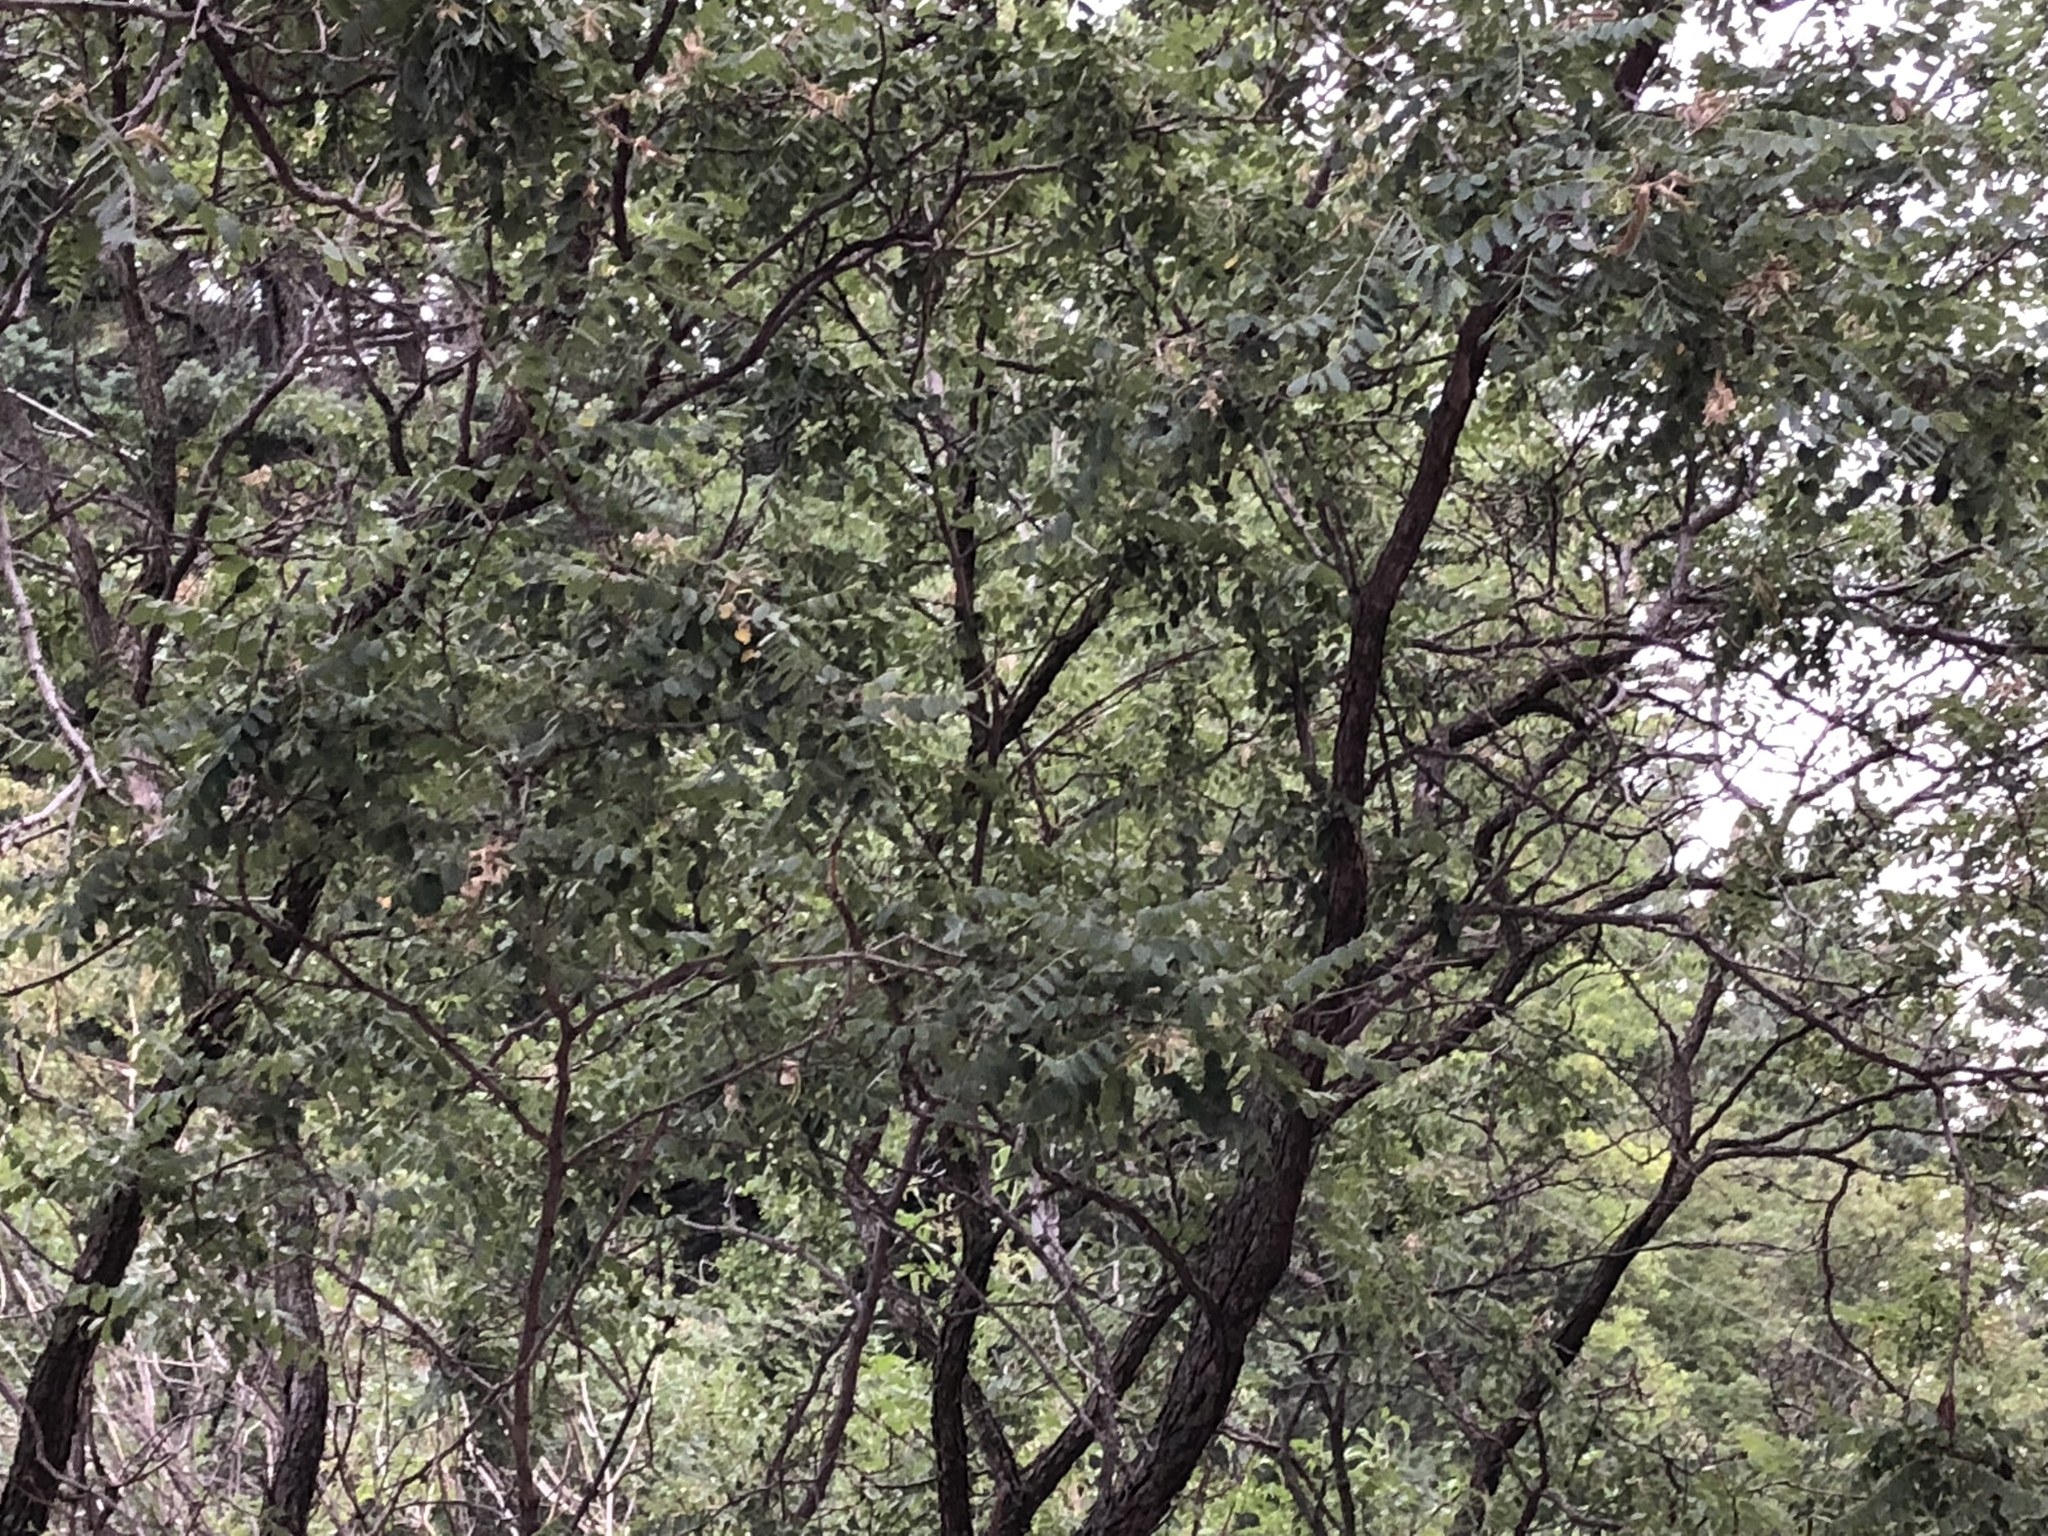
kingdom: Plantae
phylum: Tracheophyta
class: Magnoliopsida
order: Fabales
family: Fabaceae
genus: Robinia
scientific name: Robinia neomexicana
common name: New mexico locust
